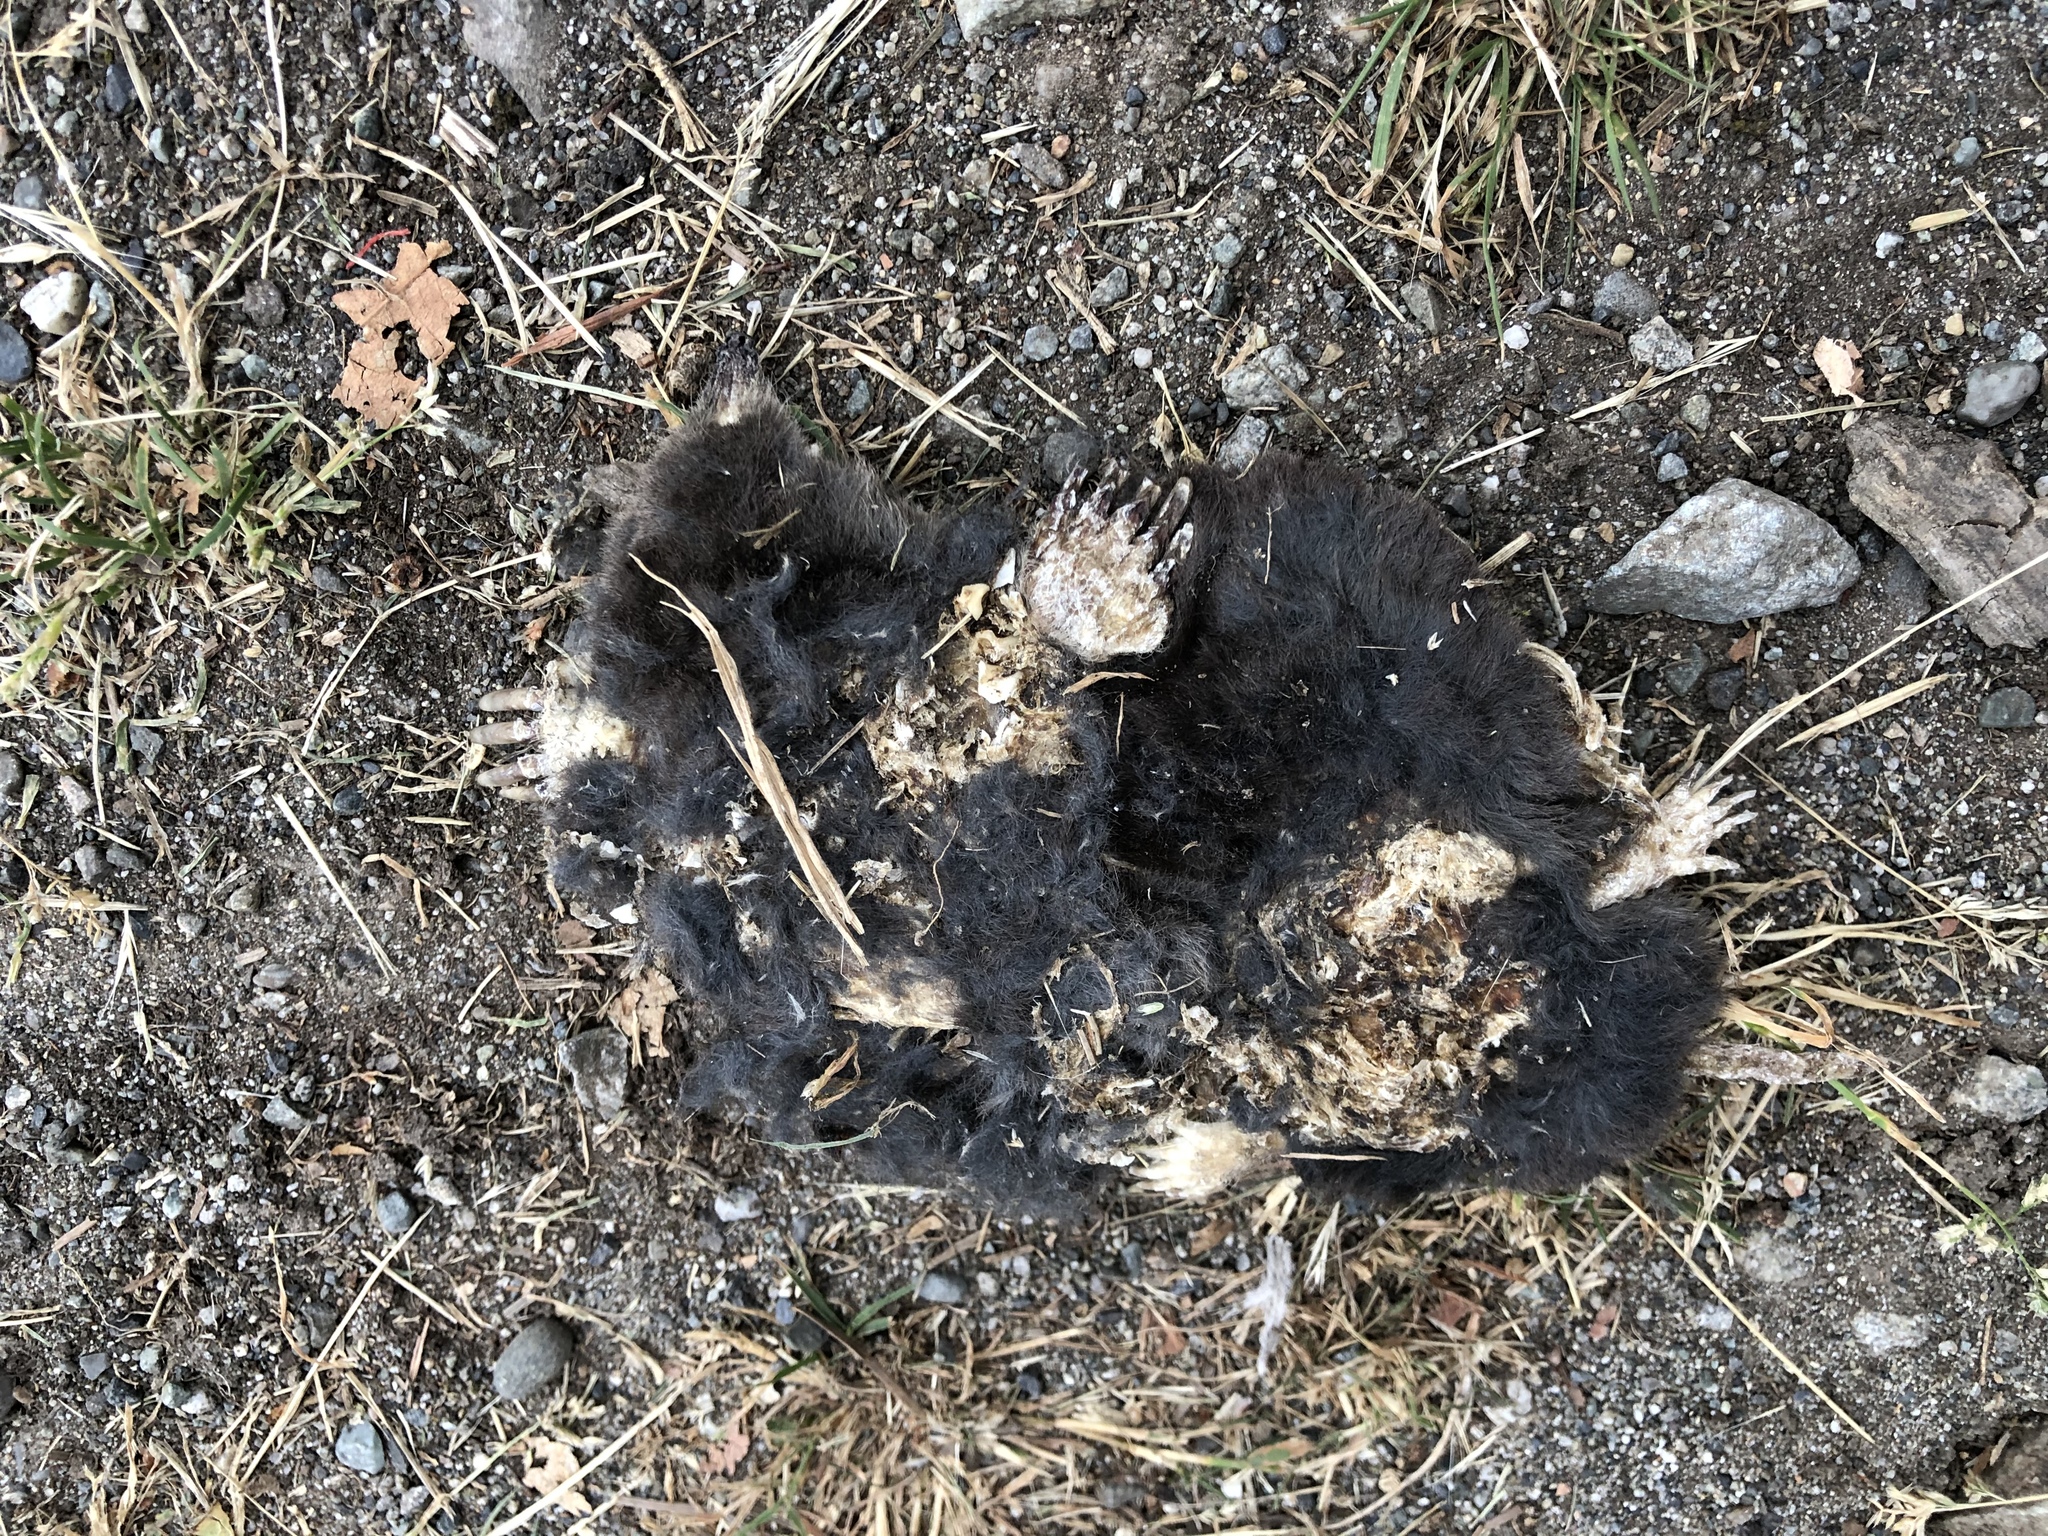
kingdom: Animalia
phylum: Chordata
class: Mammalia
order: Soricomorpha
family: Talpidae
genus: Scapanus
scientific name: Scapanus orarius
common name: Coast mole
